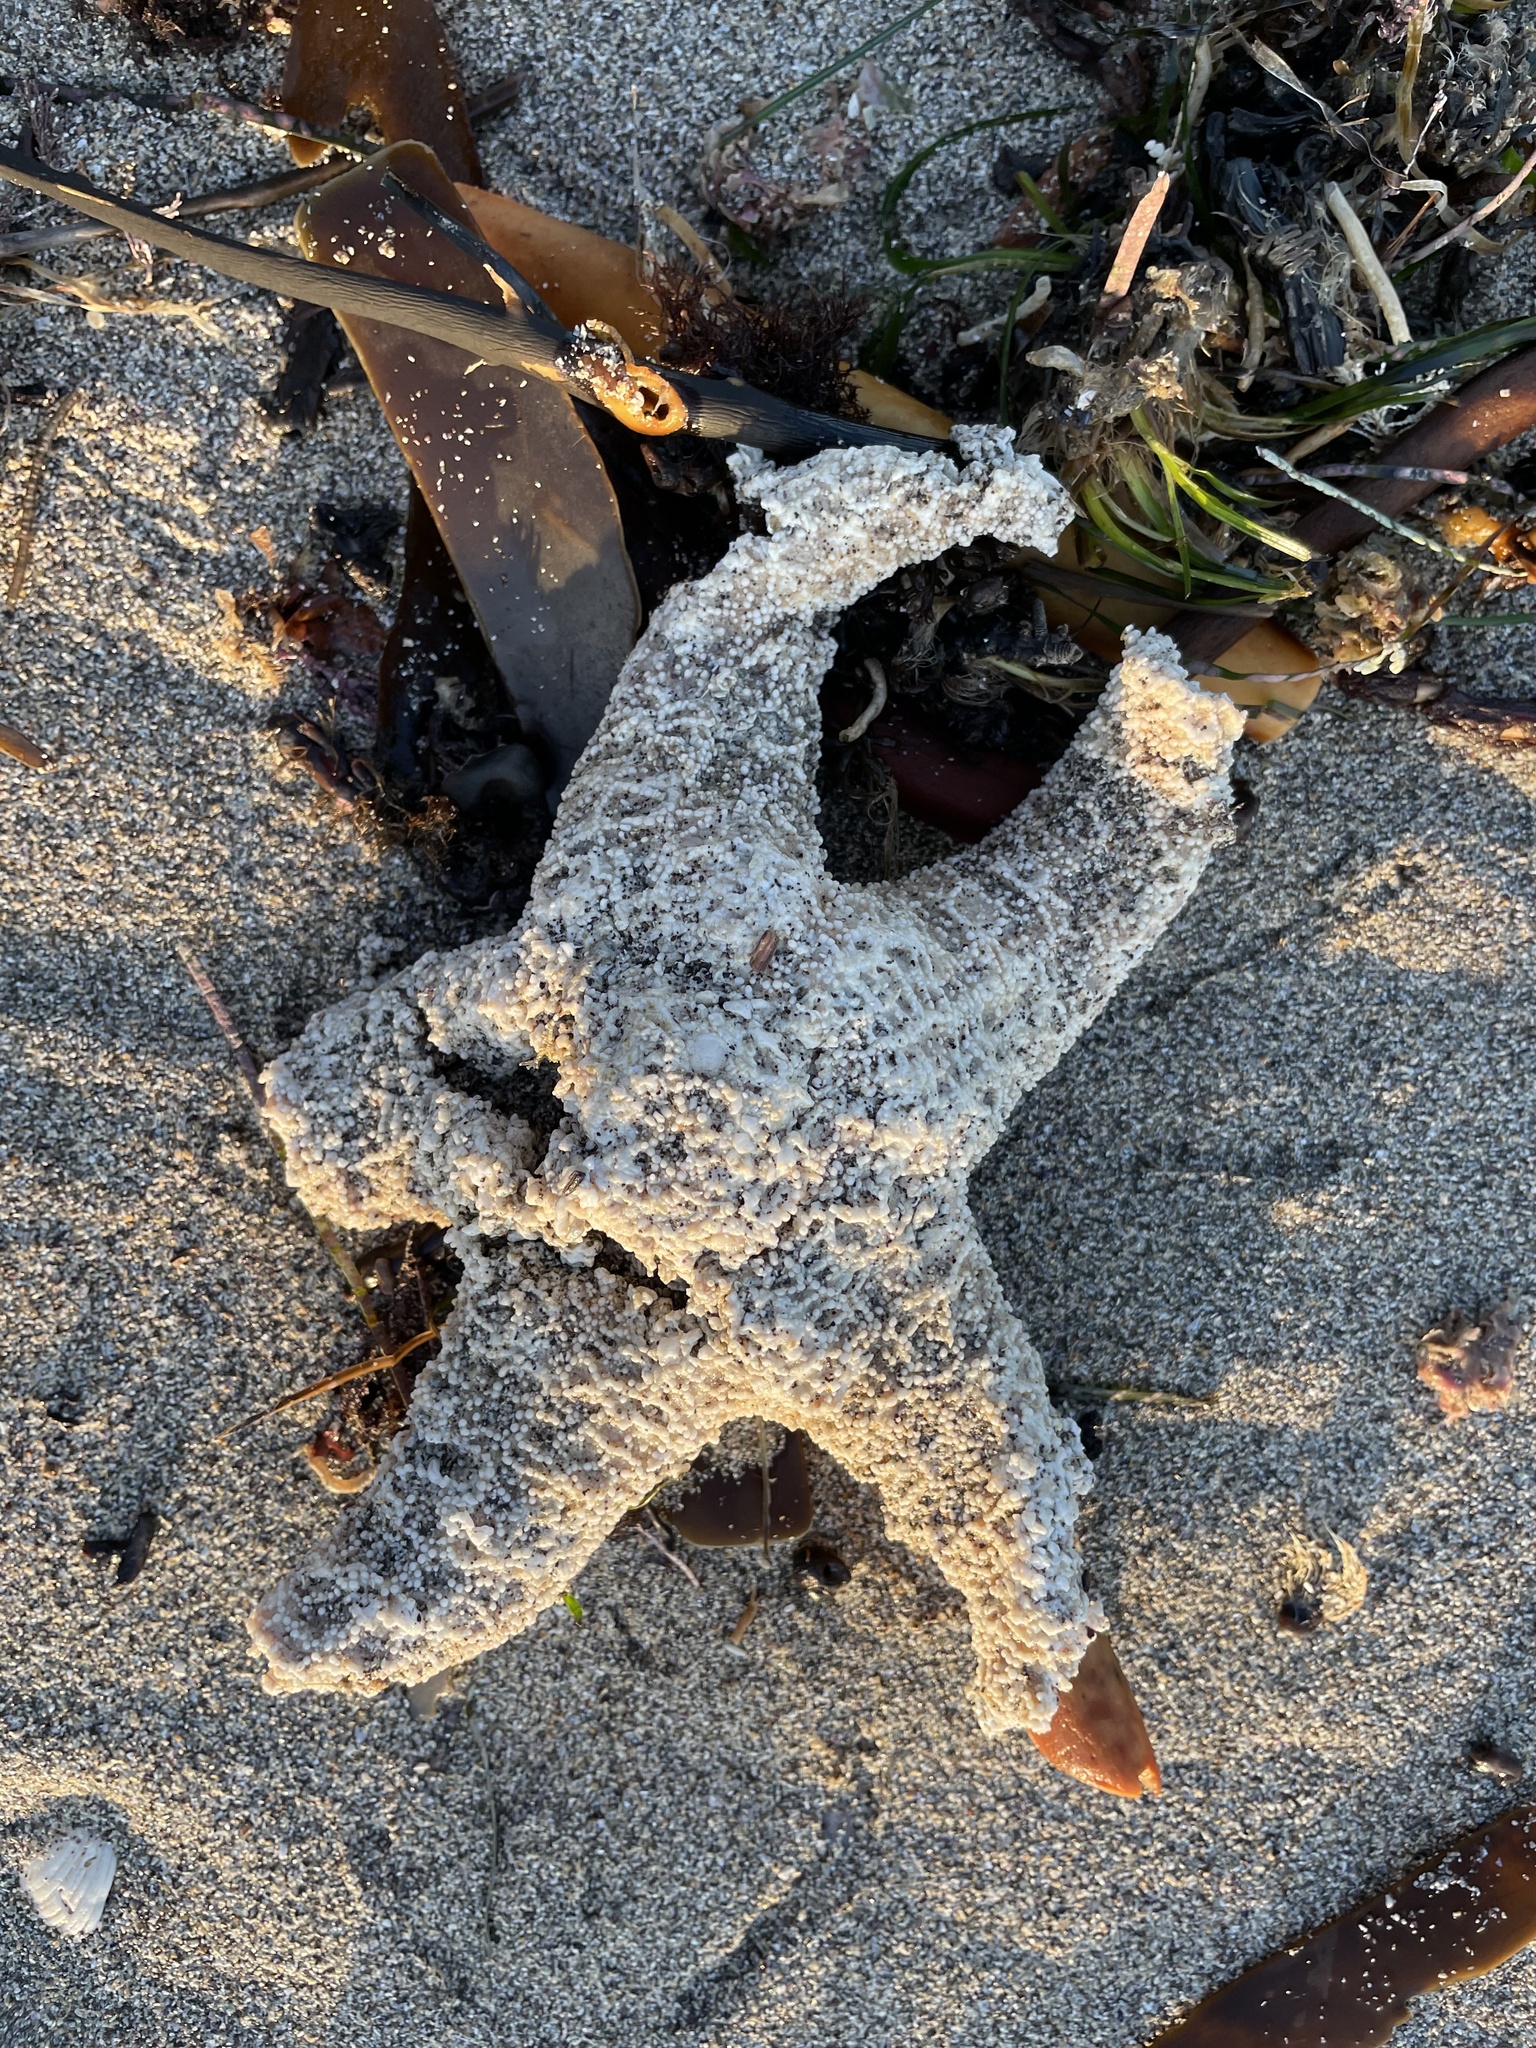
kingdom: Animalia
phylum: Echinodermata
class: Asteroidea
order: Forcipulatida
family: Asteriidae
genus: Pisaster
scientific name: Pisaster ochraceus
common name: Ochre stars
